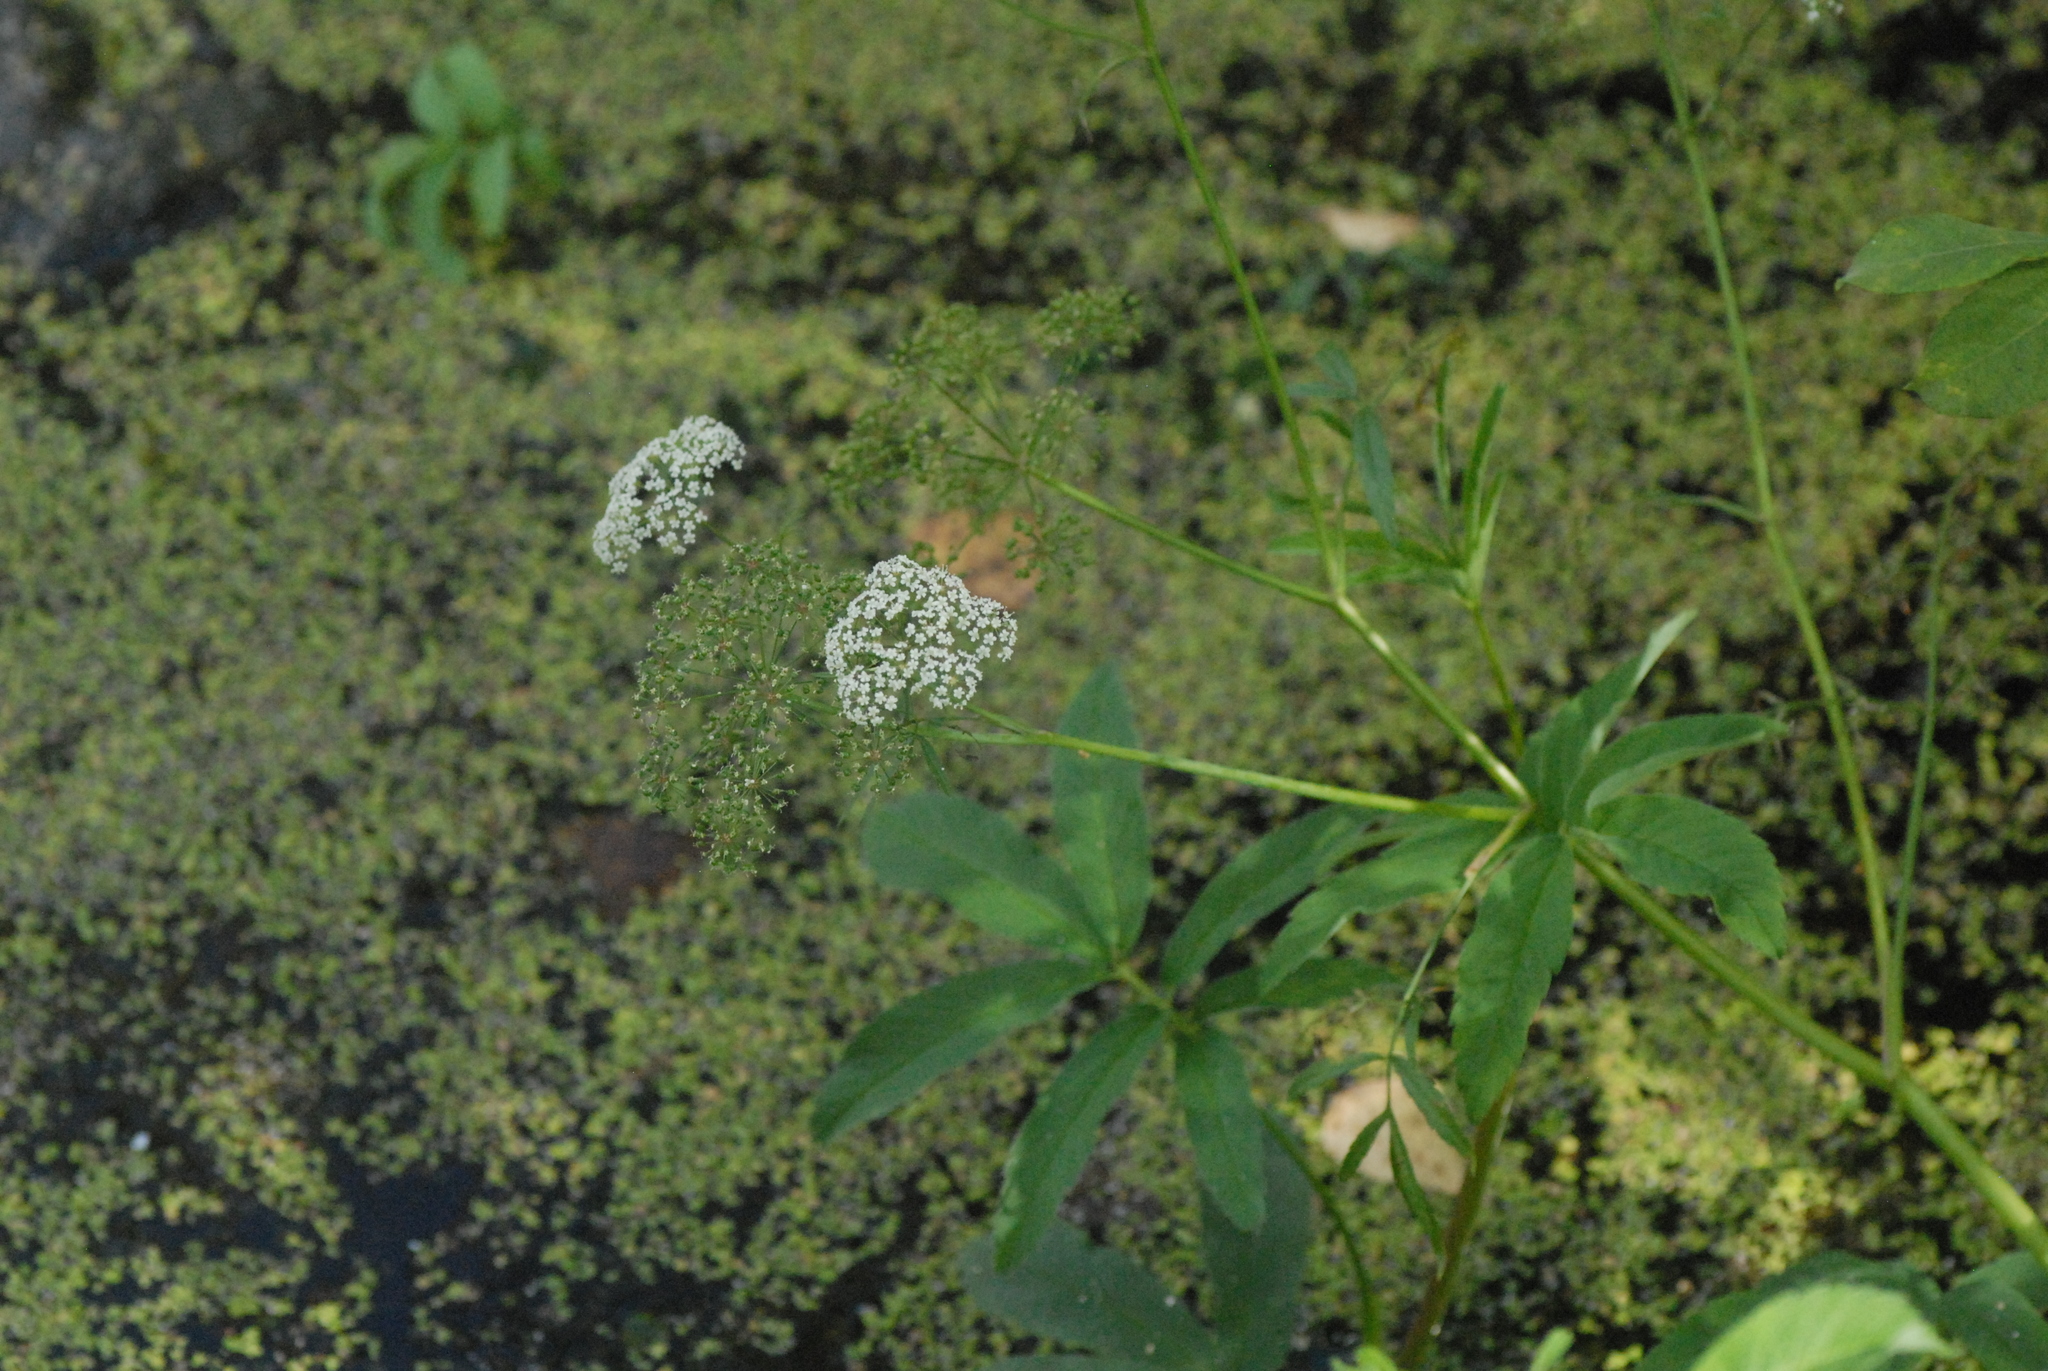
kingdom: Plantae
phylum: Tracheophyta
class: Magnoliopsida
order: Apiales
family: Apiaceae
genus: Cicuta
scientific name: Cicuta virosa
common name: Cowbane
